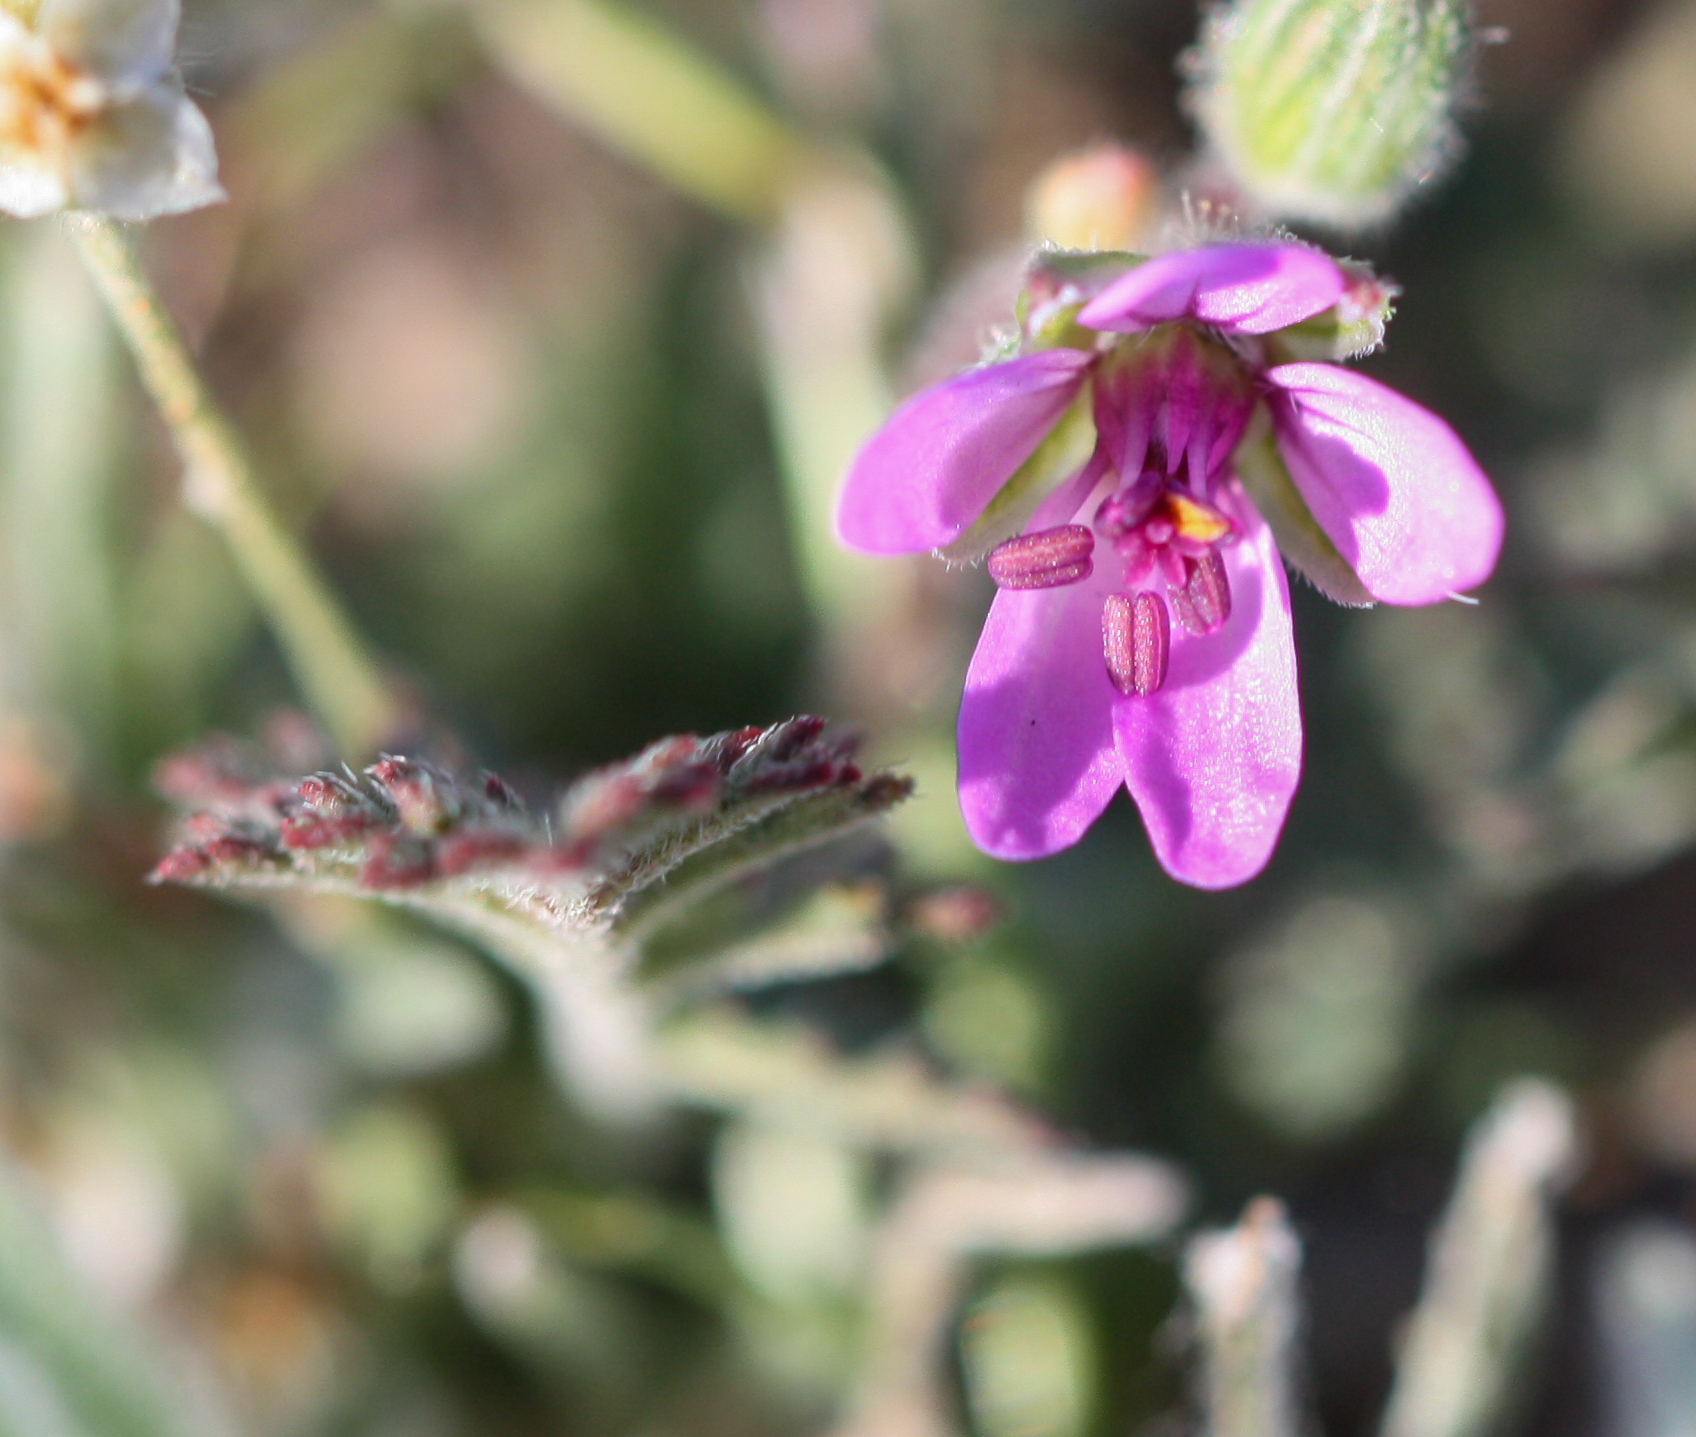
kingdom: Plantae
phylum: Tracheophyta
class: Magnoliopsida
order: Geraniales
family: Geraniaceae
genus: Erodium
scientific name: Erodium cicutarium
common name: Common stork's-bill
